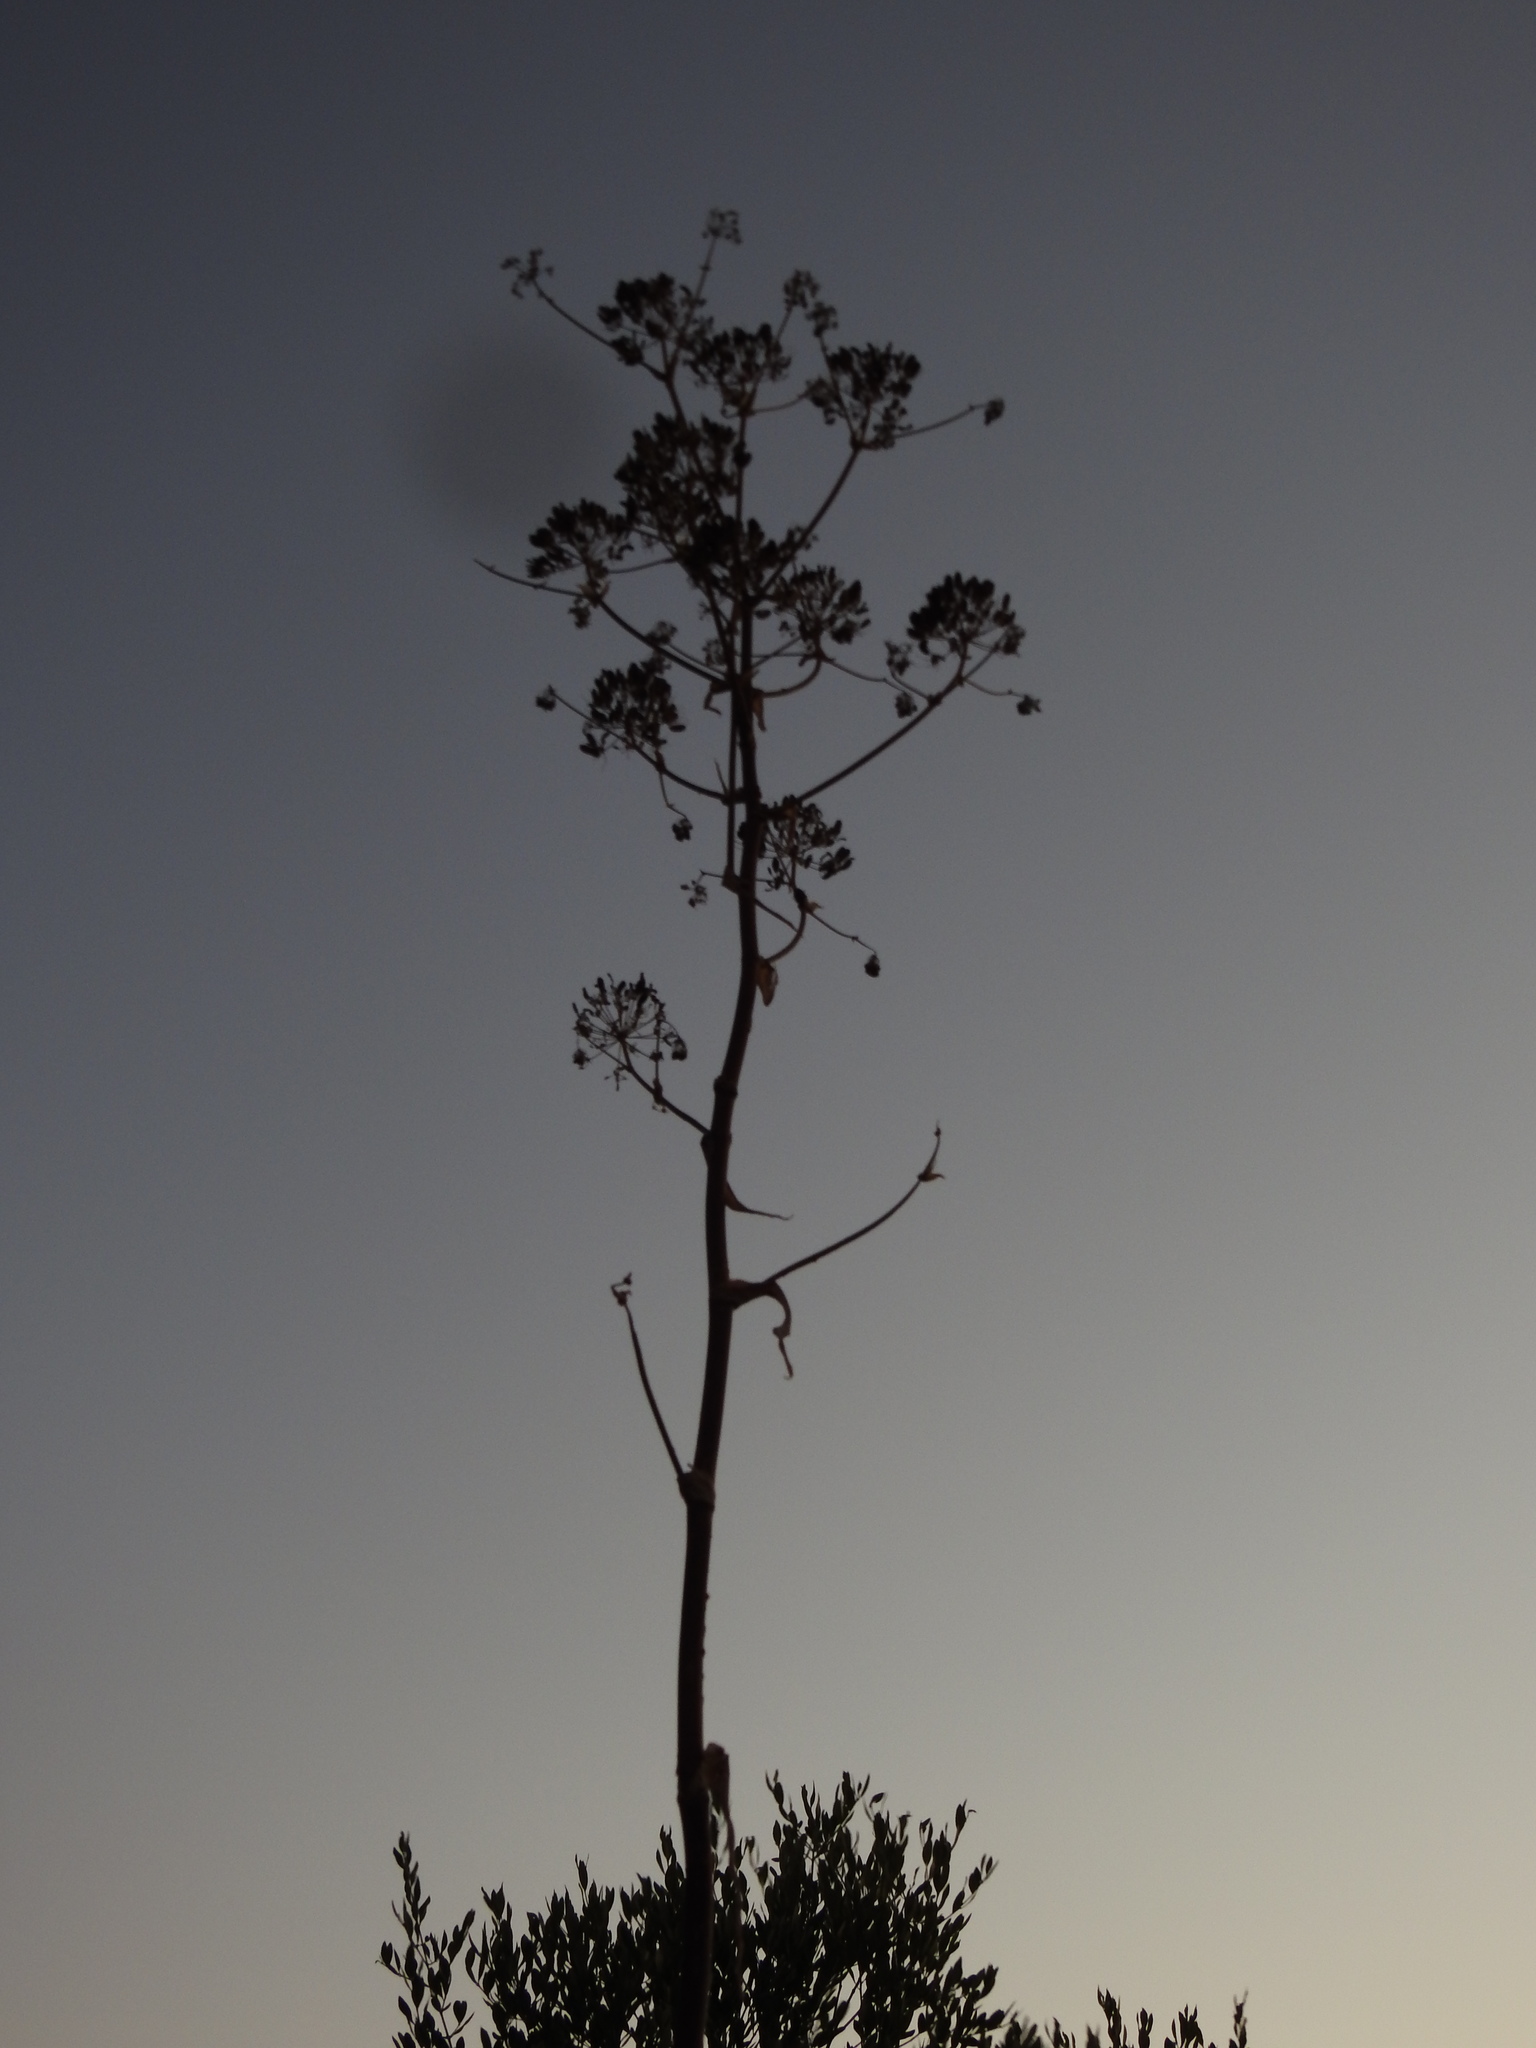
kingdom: Plantae
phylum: Tracheophyta
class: Magnoliopsida
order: Apiales
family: Apiaceae
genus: Ferula
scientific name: Ferula communis
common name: Giant fennel
